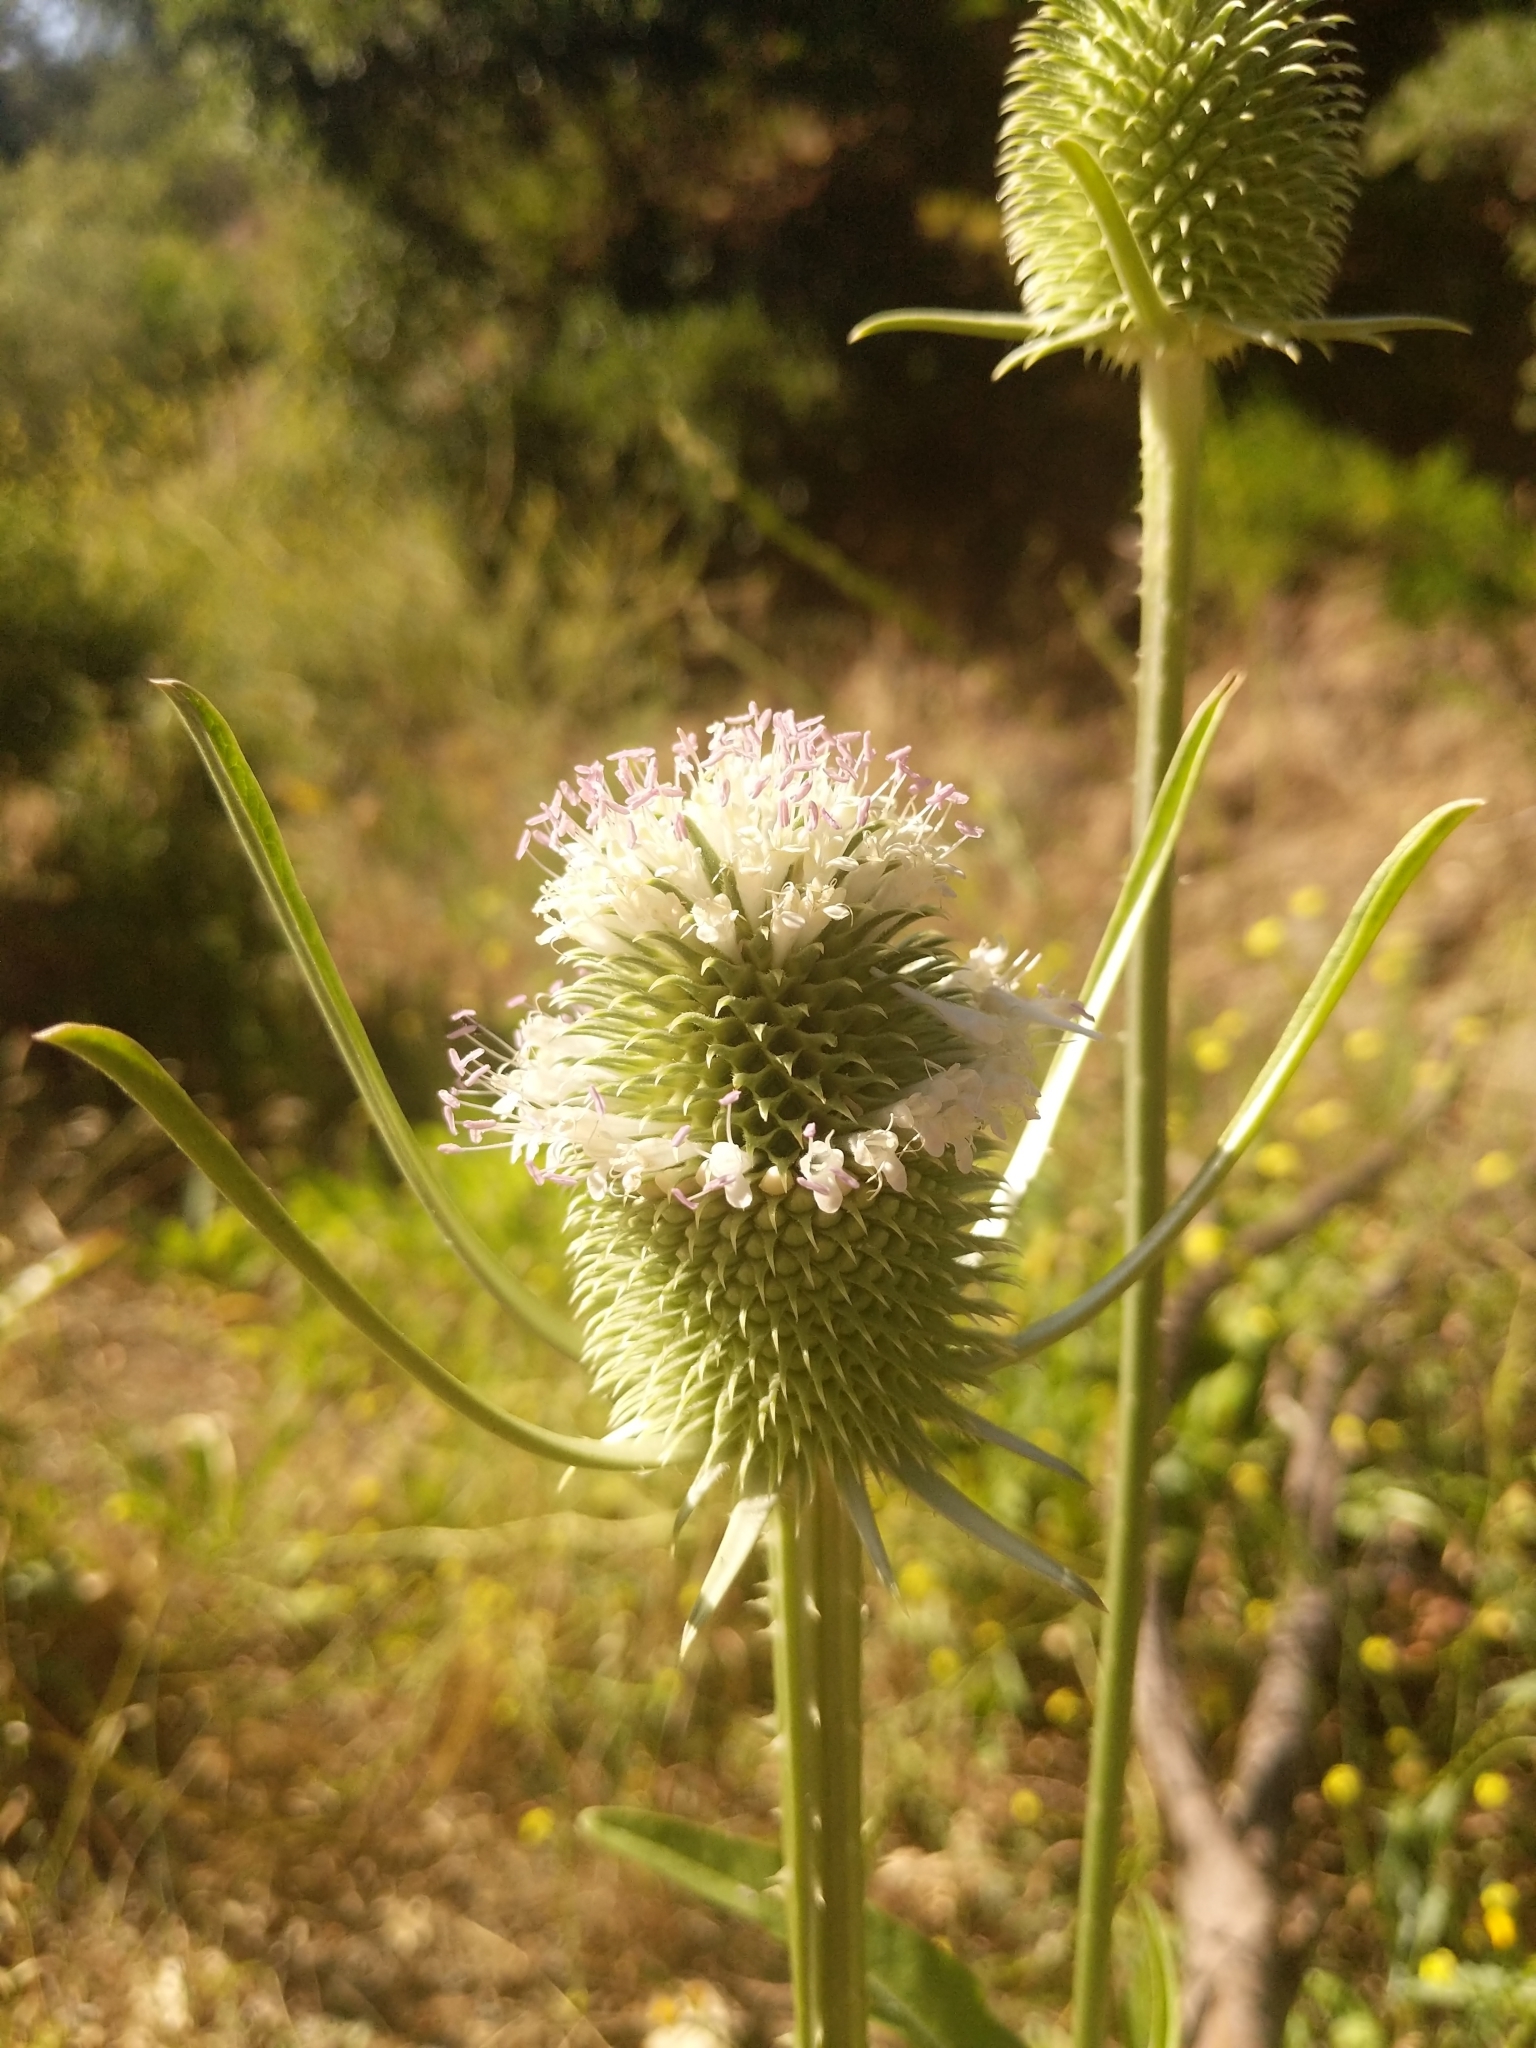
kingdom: Plantae
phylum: Tracheophyta
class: Magnoliopsida
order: Dipsacales
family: Caprifoliaceae
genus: Dipsacus
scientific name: Dipsacus sativus
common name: Fuller's teasel
